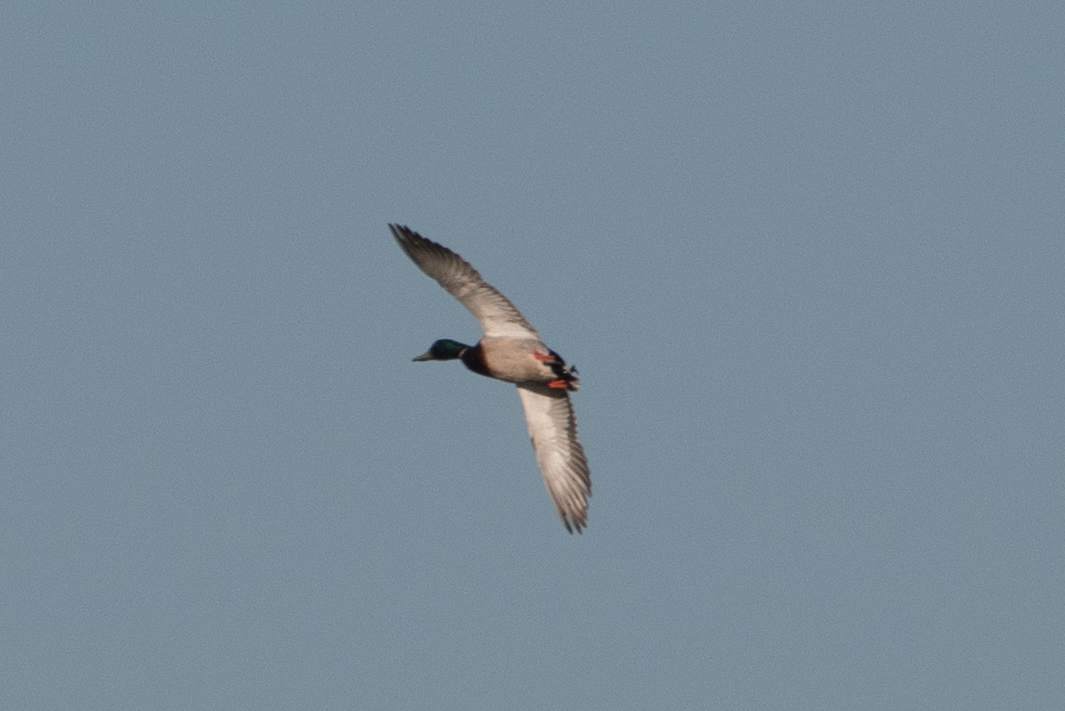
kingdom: Animalia
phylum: Chordata
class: Aves
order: Anseriformes
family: Anatidae
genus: Anas
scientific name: Anas platyrhynchos
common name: Mallard
